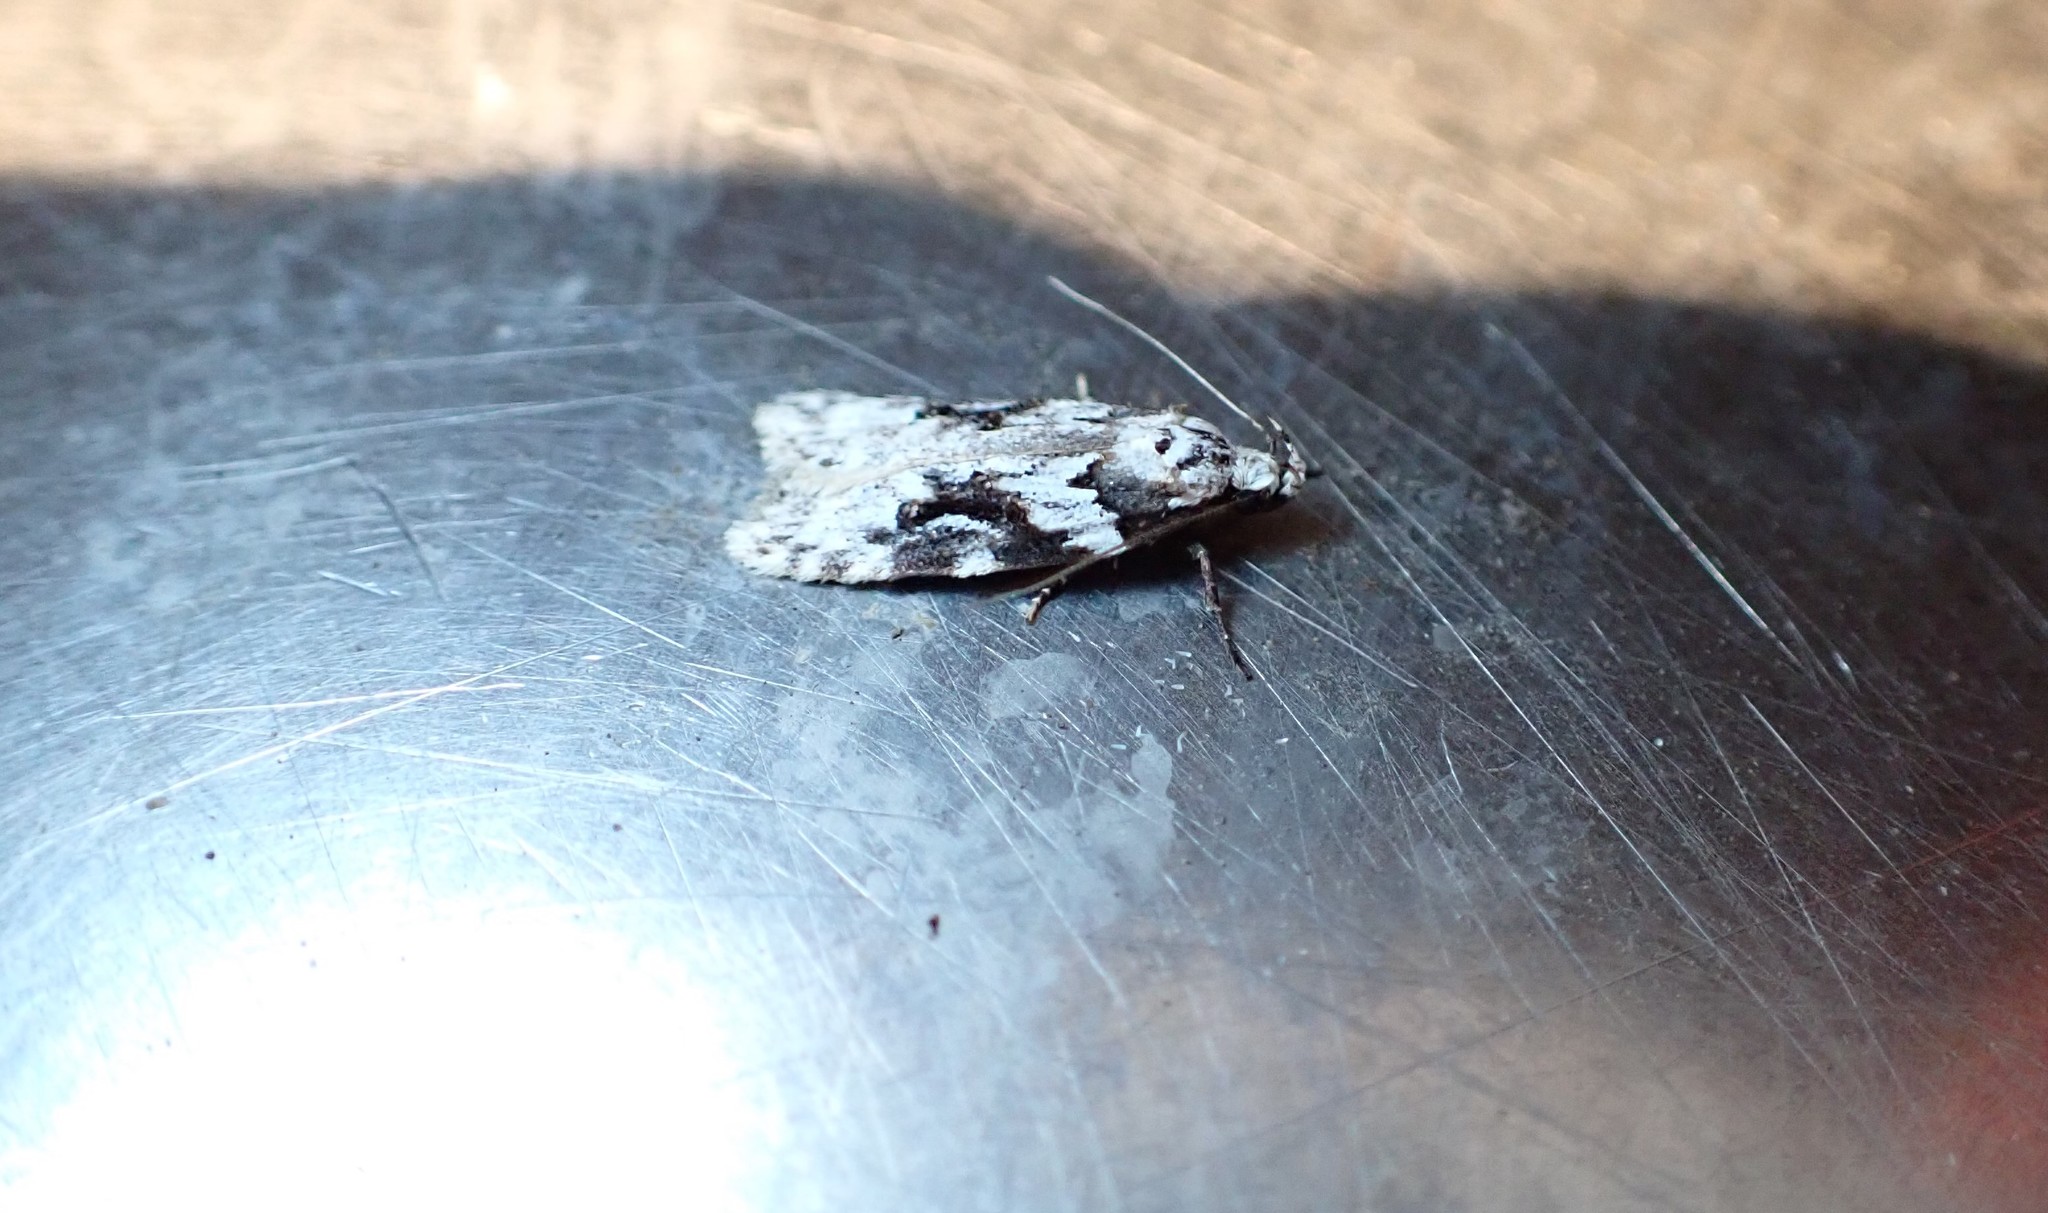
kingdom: Animalia
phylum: Arthropoda
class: Insecta
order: Lepidoptera
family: Oecophoridae
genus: Izatha
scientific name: Izatha mesoschista
